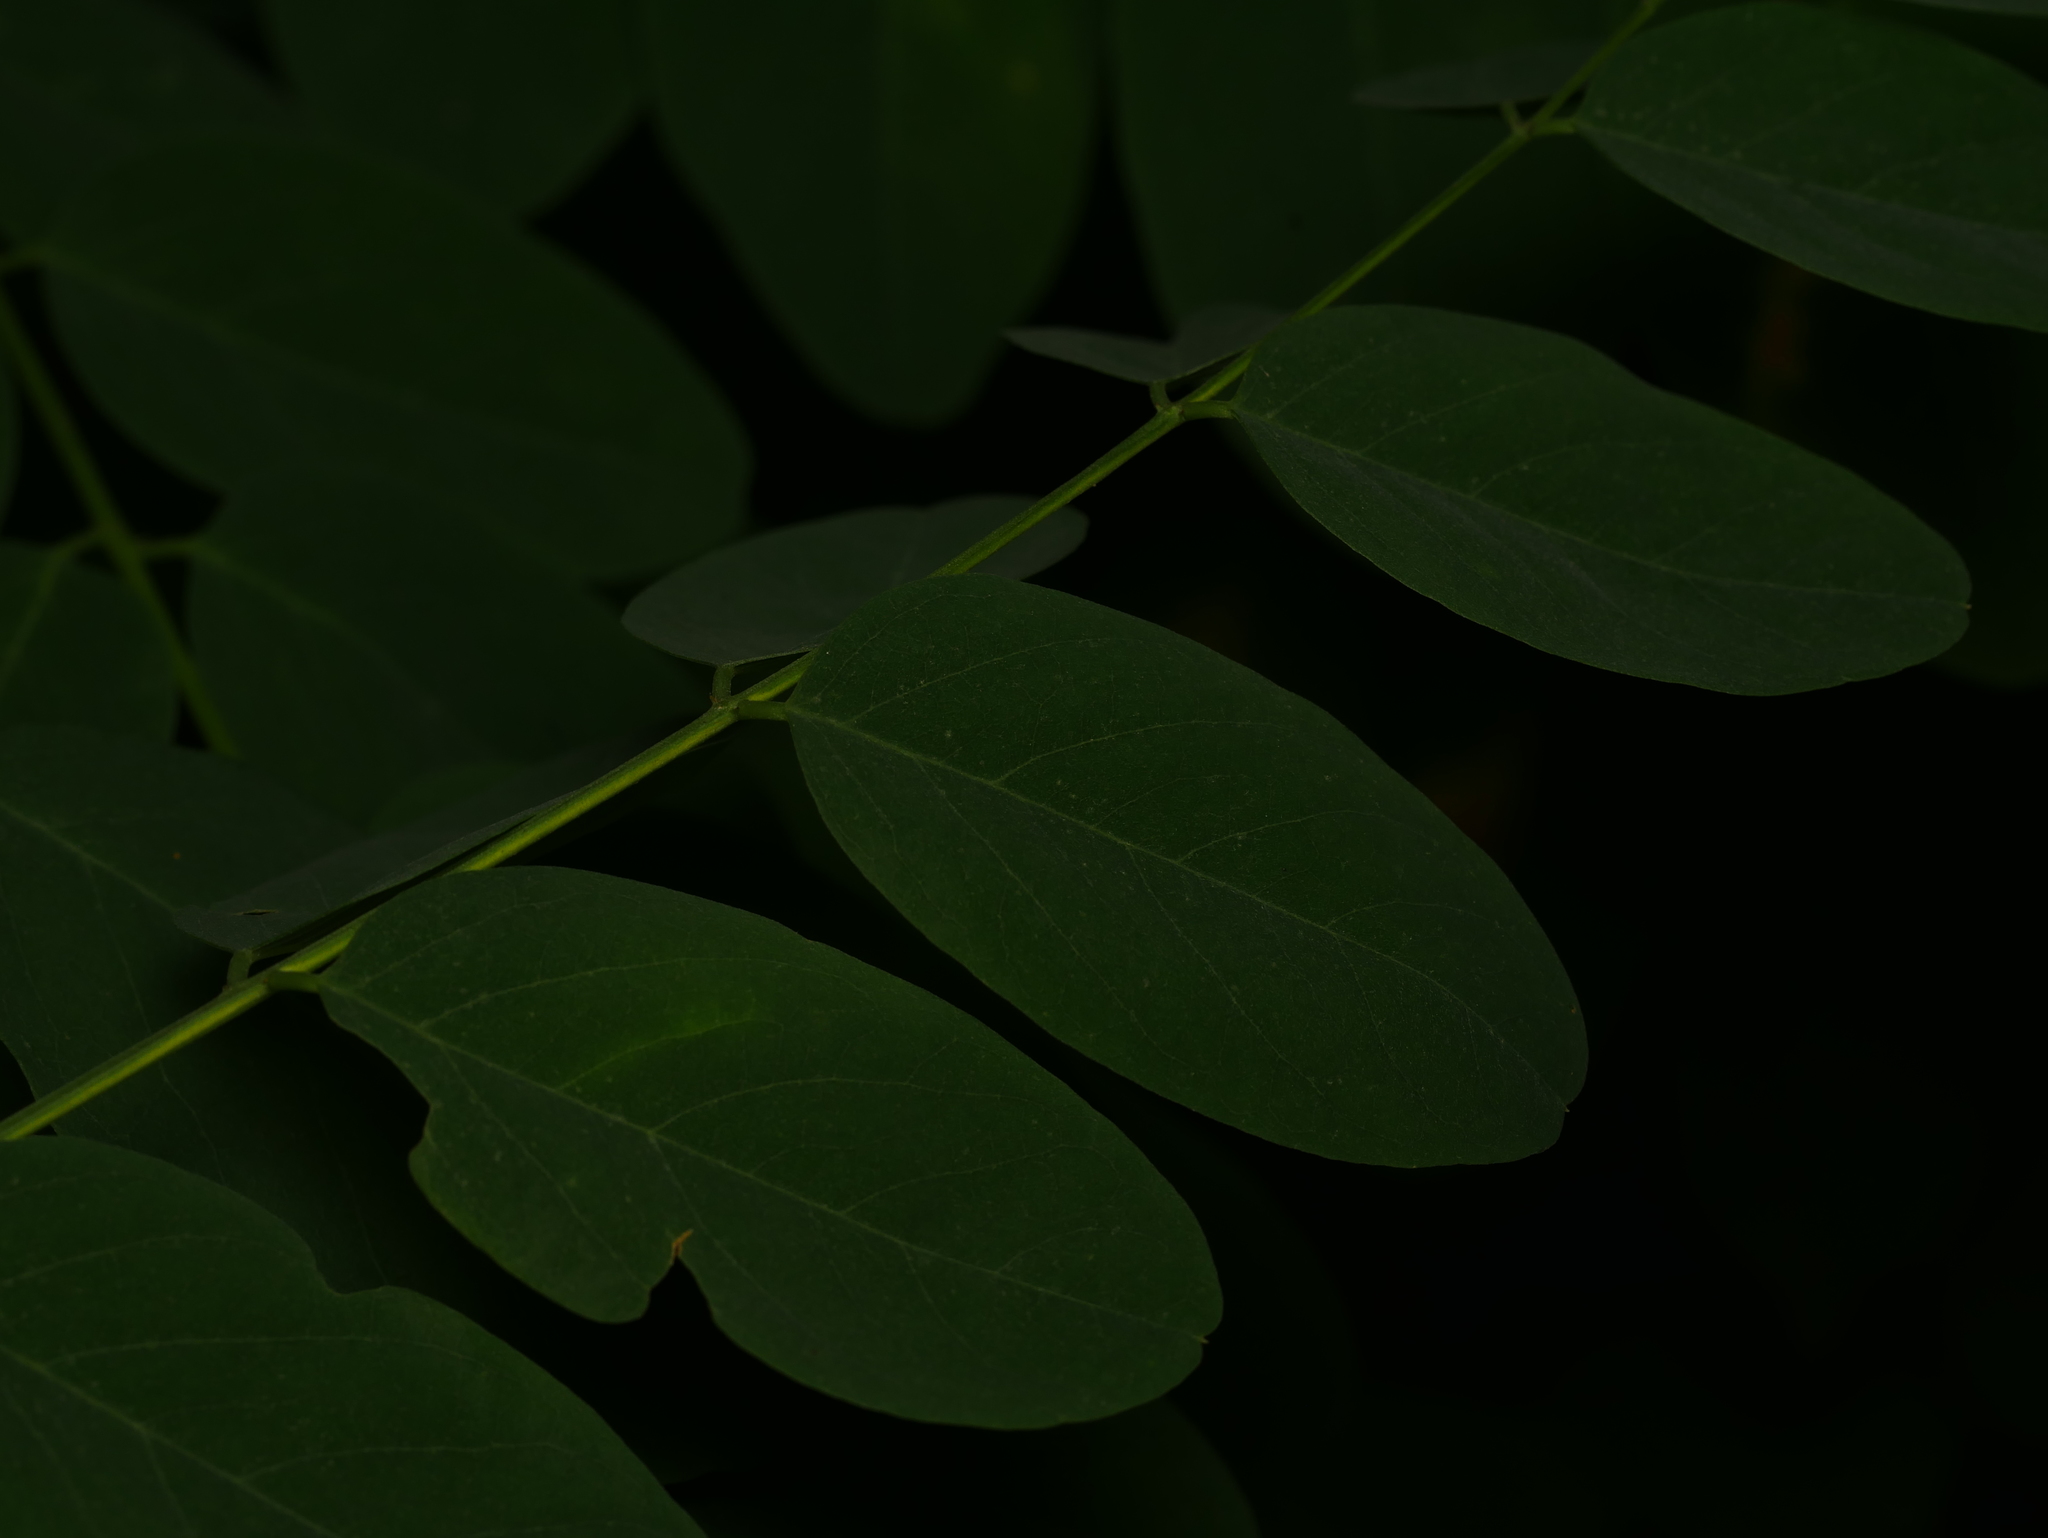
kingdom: Plantae
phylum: Tracheophyta
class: Magnoliopsida
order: Fabales
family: Fabaceae
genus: Robinia
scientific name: Robinia pseudoacacia
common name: Black locust
